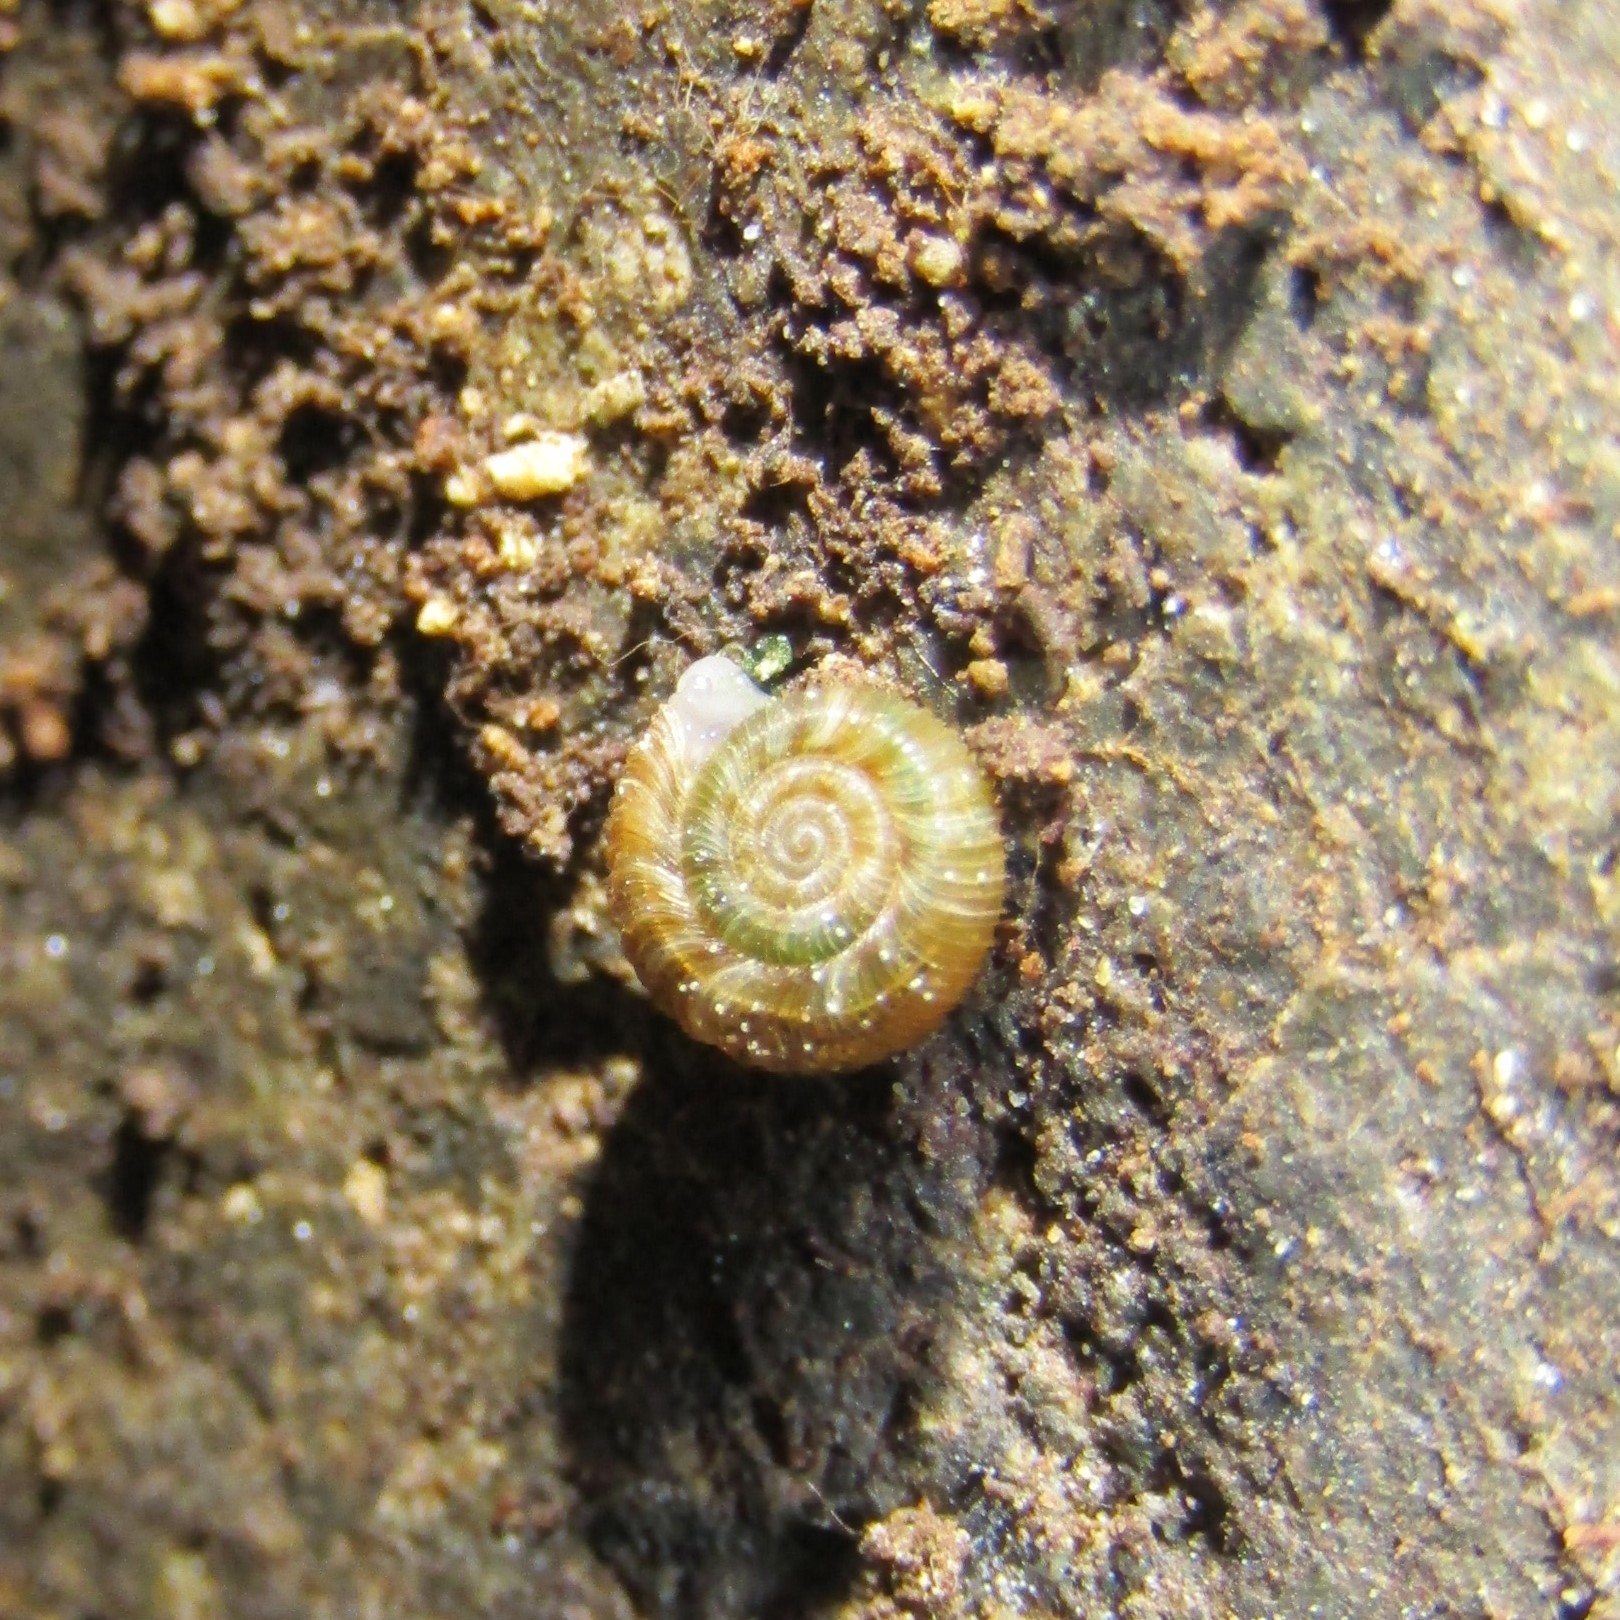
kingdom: Animalia
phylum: Mollusca
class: Gastropoda
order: Stylommatophora
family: Charopidae
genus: Cavellia
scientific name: Cavellia anguicula
